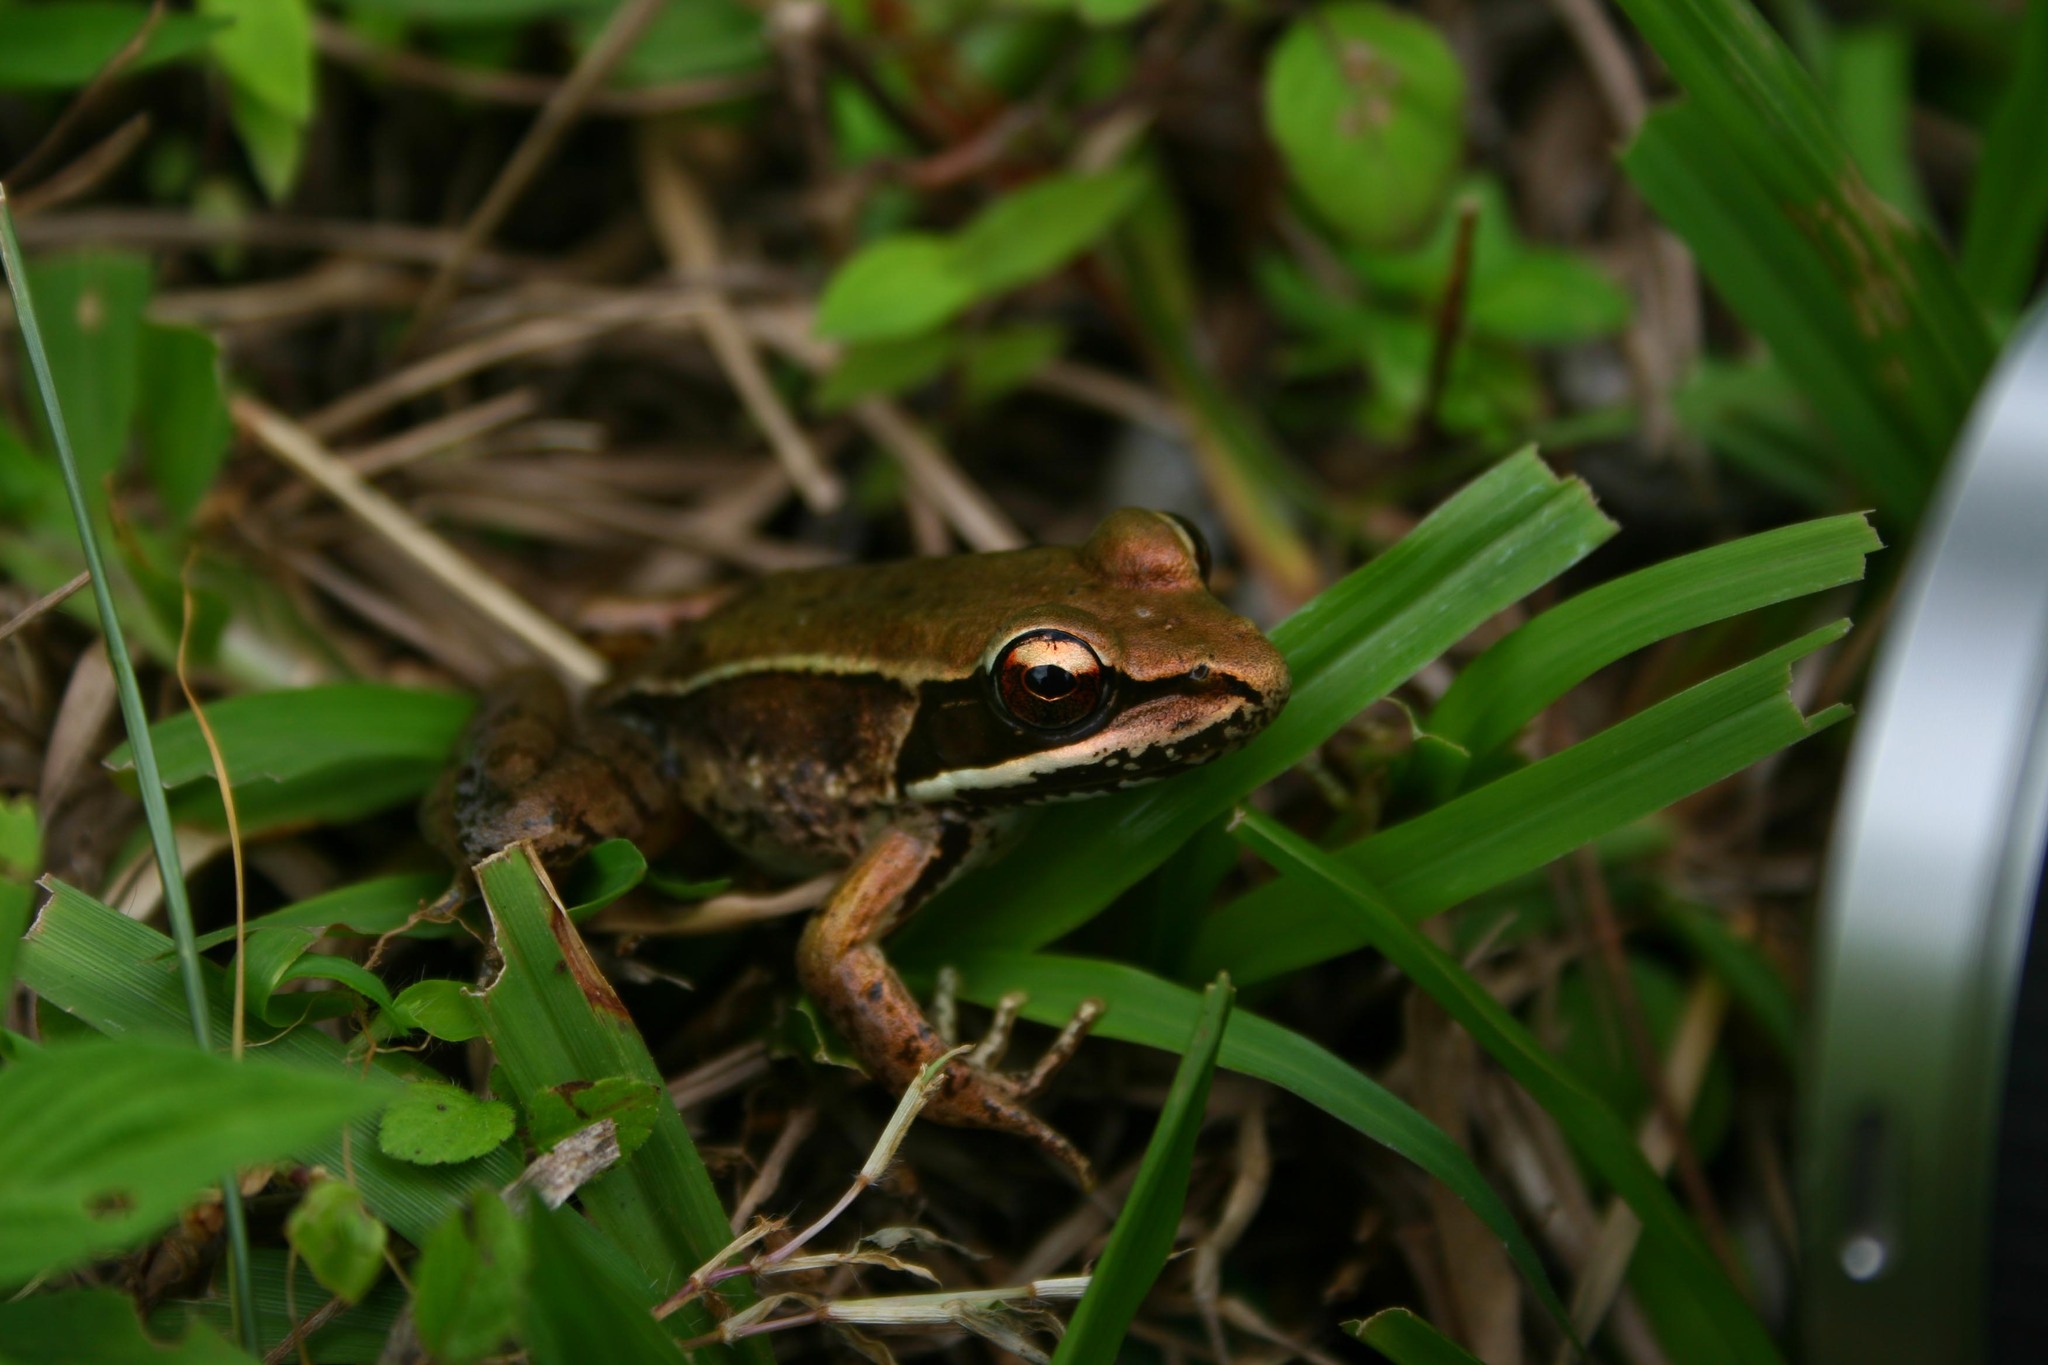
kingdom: Animalia
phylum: Chordata
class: Amphibia
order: Anura
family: Ranidae
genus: Lithobates
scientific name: Lithobates maculatus
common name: Highland frog
